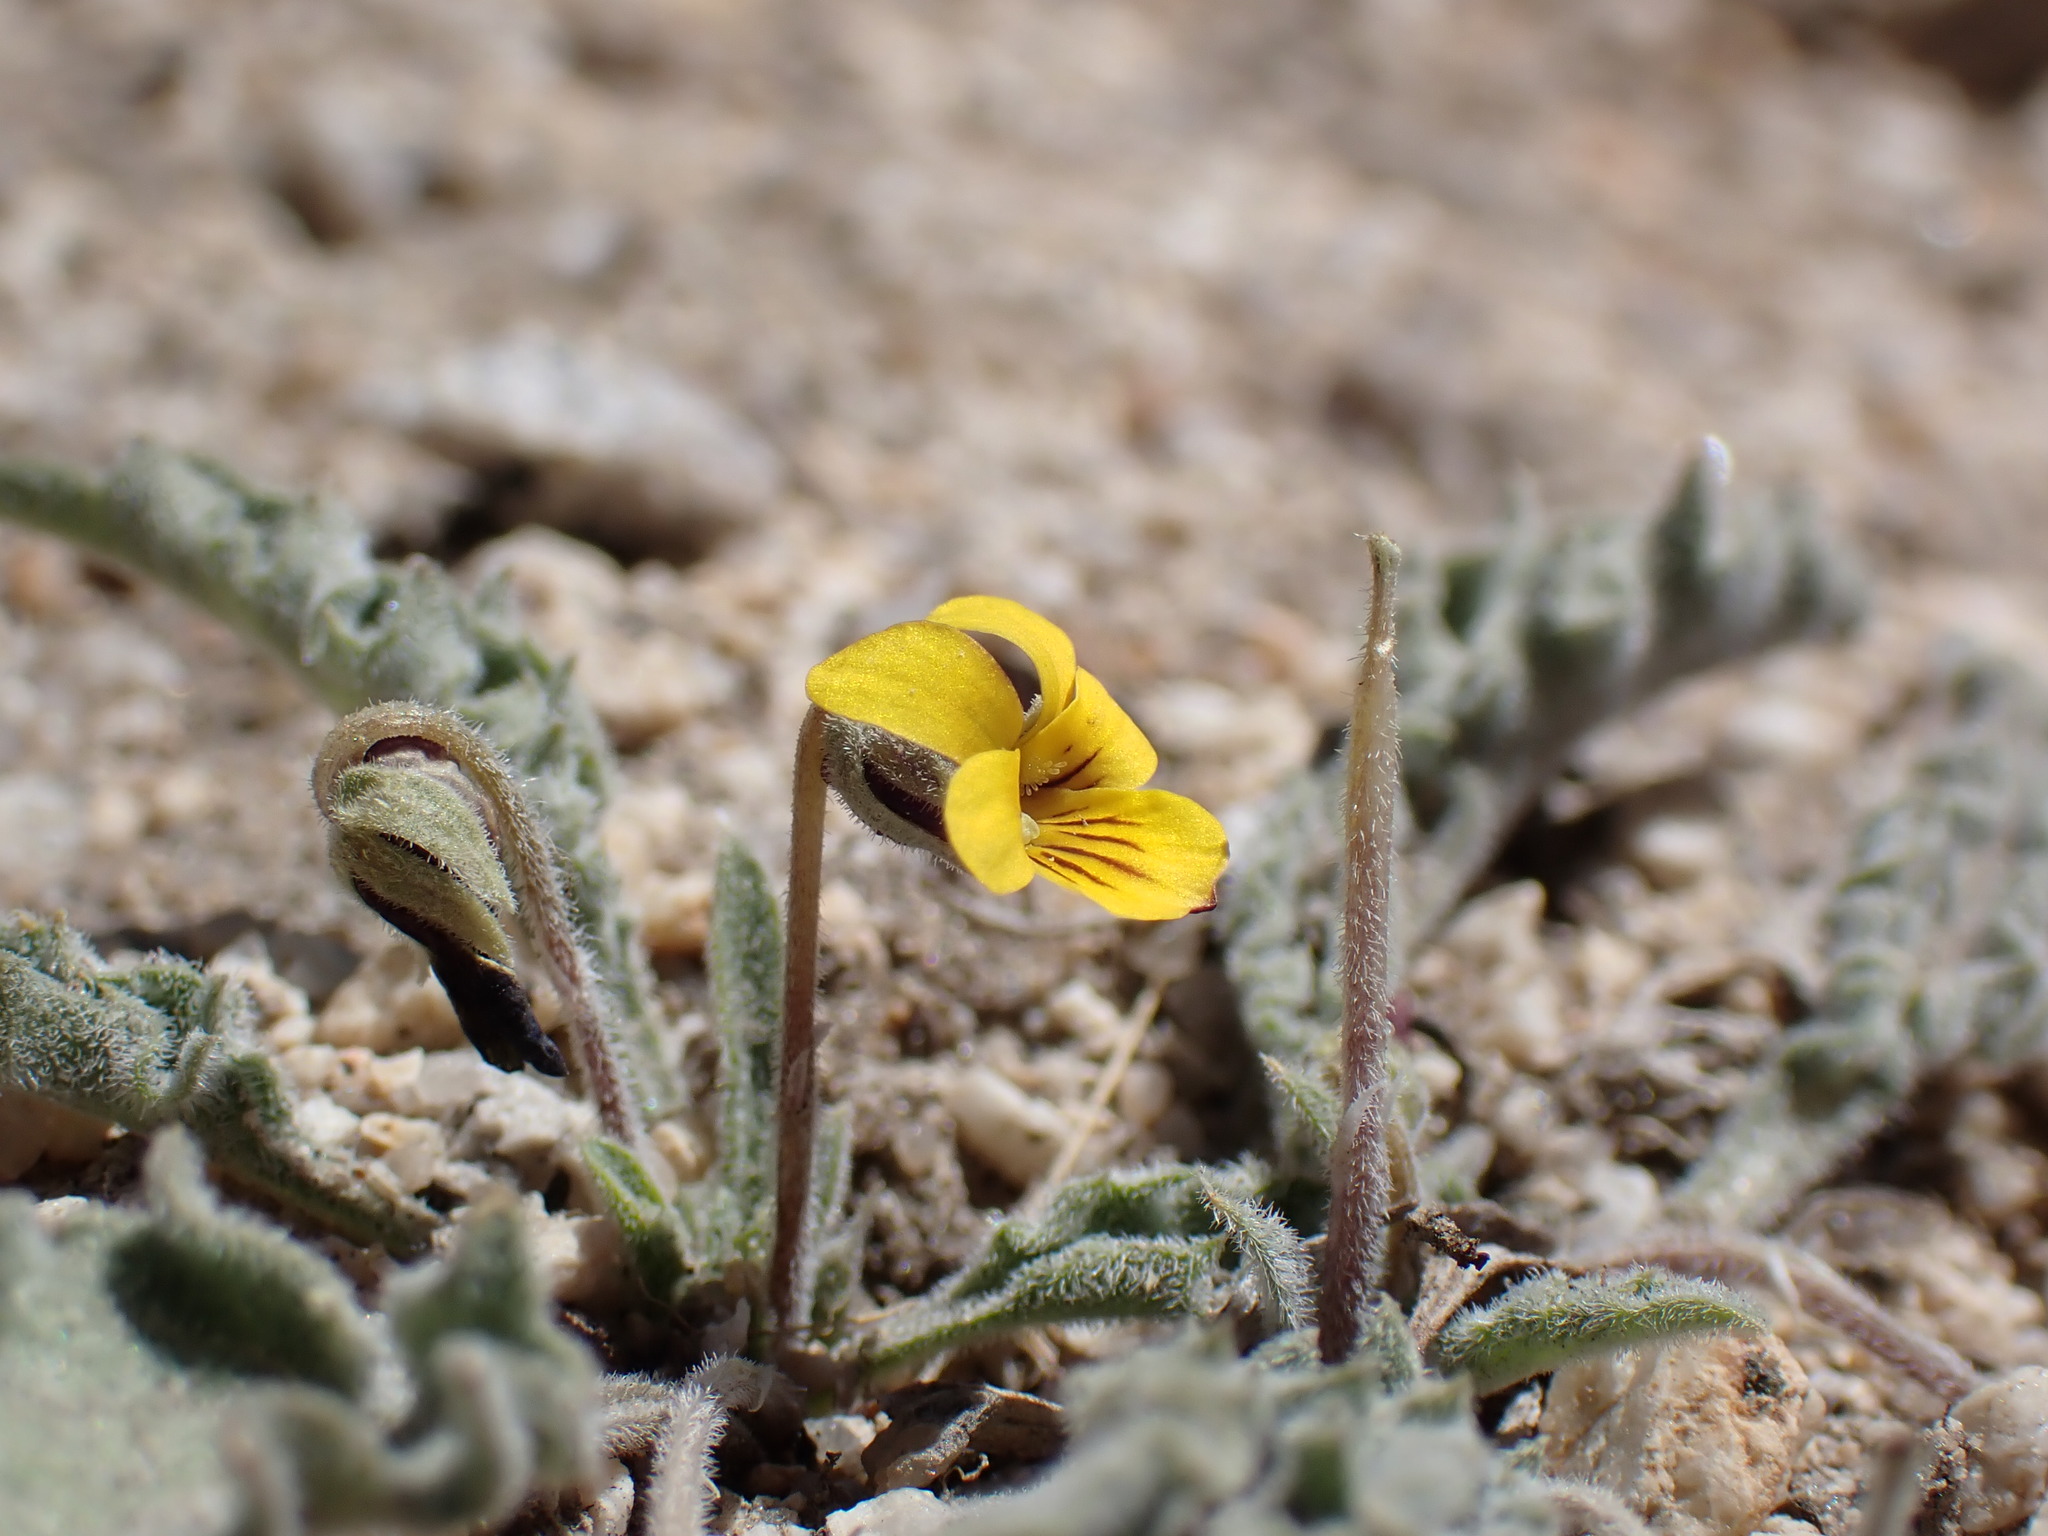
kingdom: Plantae
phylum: Tracheophyta
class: Magnoliopsida
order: Malpighiales
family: Violaceae
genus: Viola
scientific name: Viola pinetorum
